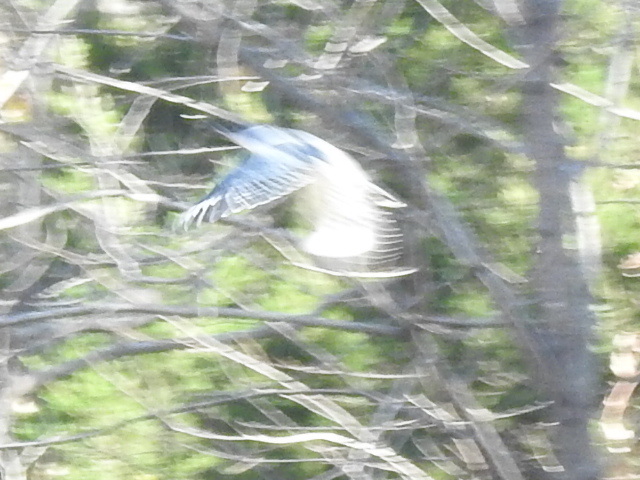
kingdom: Animalia
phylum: Chordata
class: Aves
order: Coraciiformes
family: Alcedinidae
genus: Megaceryle
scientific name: Megaceryle alcyon
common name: Belted kingfisher
